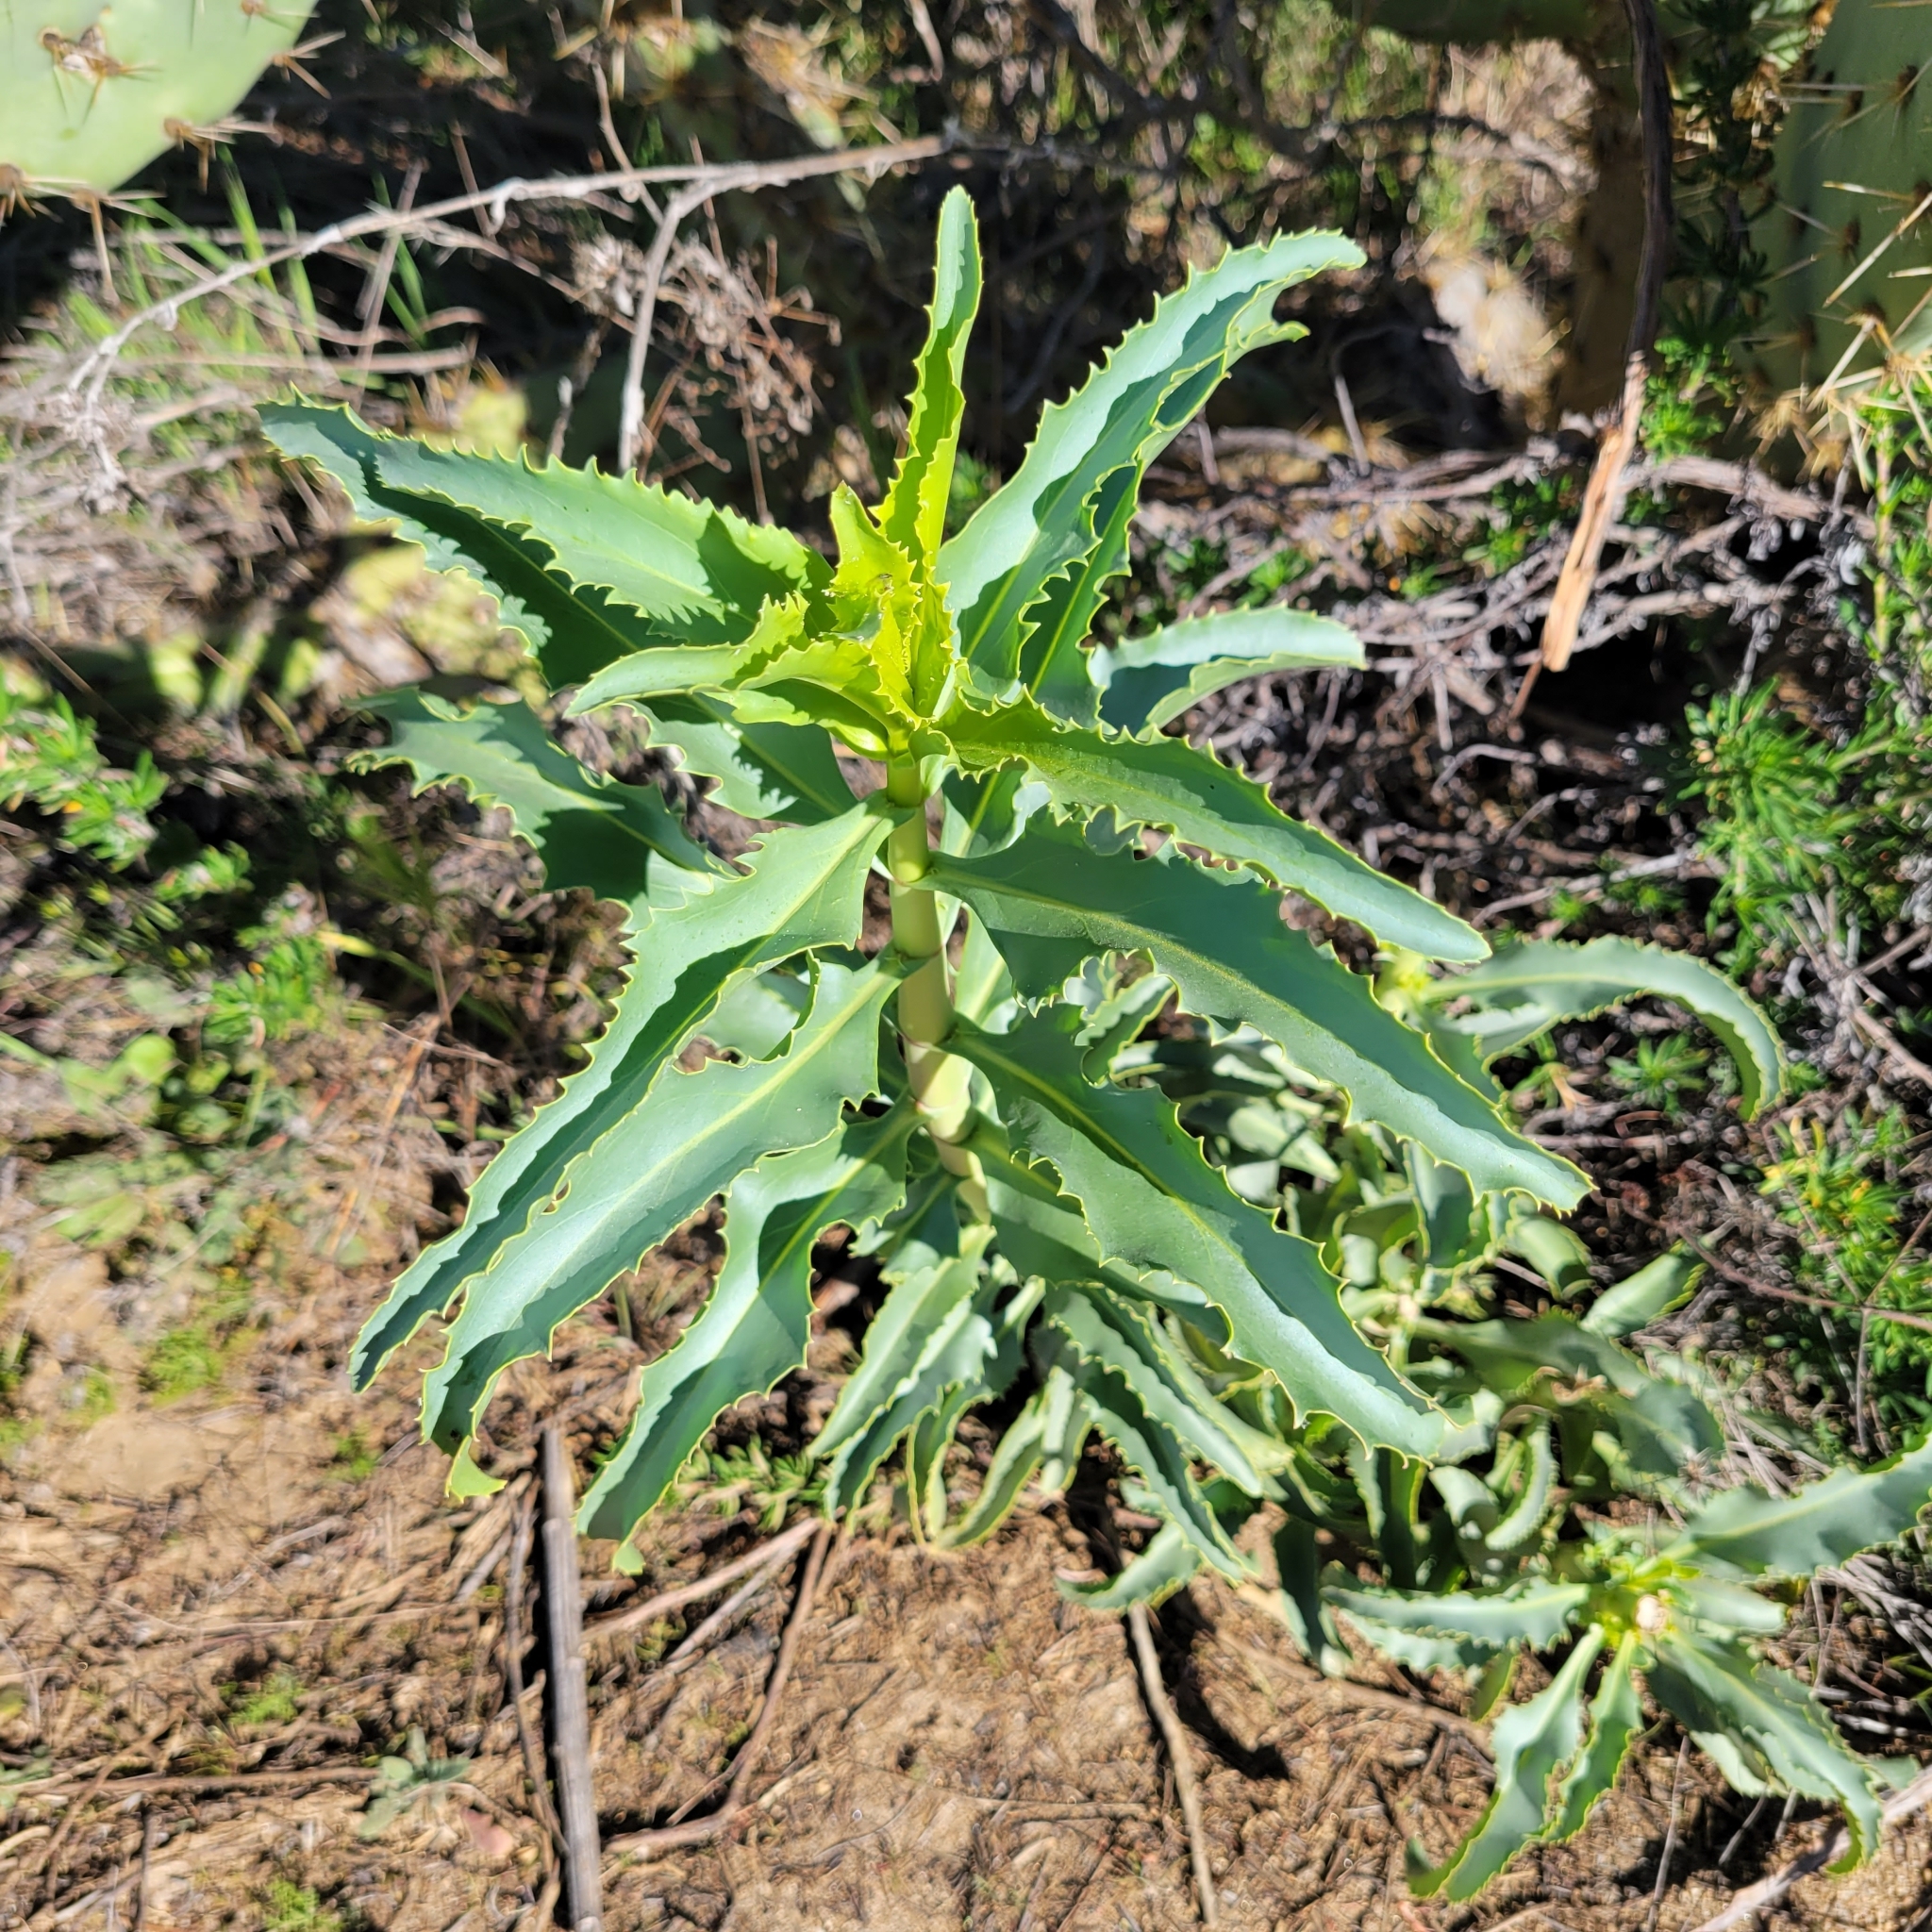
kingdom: Plantae
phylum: Tracheophyta
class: Magnoliopsida
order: Lamiales
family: Plantaginaceae
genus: Penstemon
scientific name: Penstemon spectabilis
